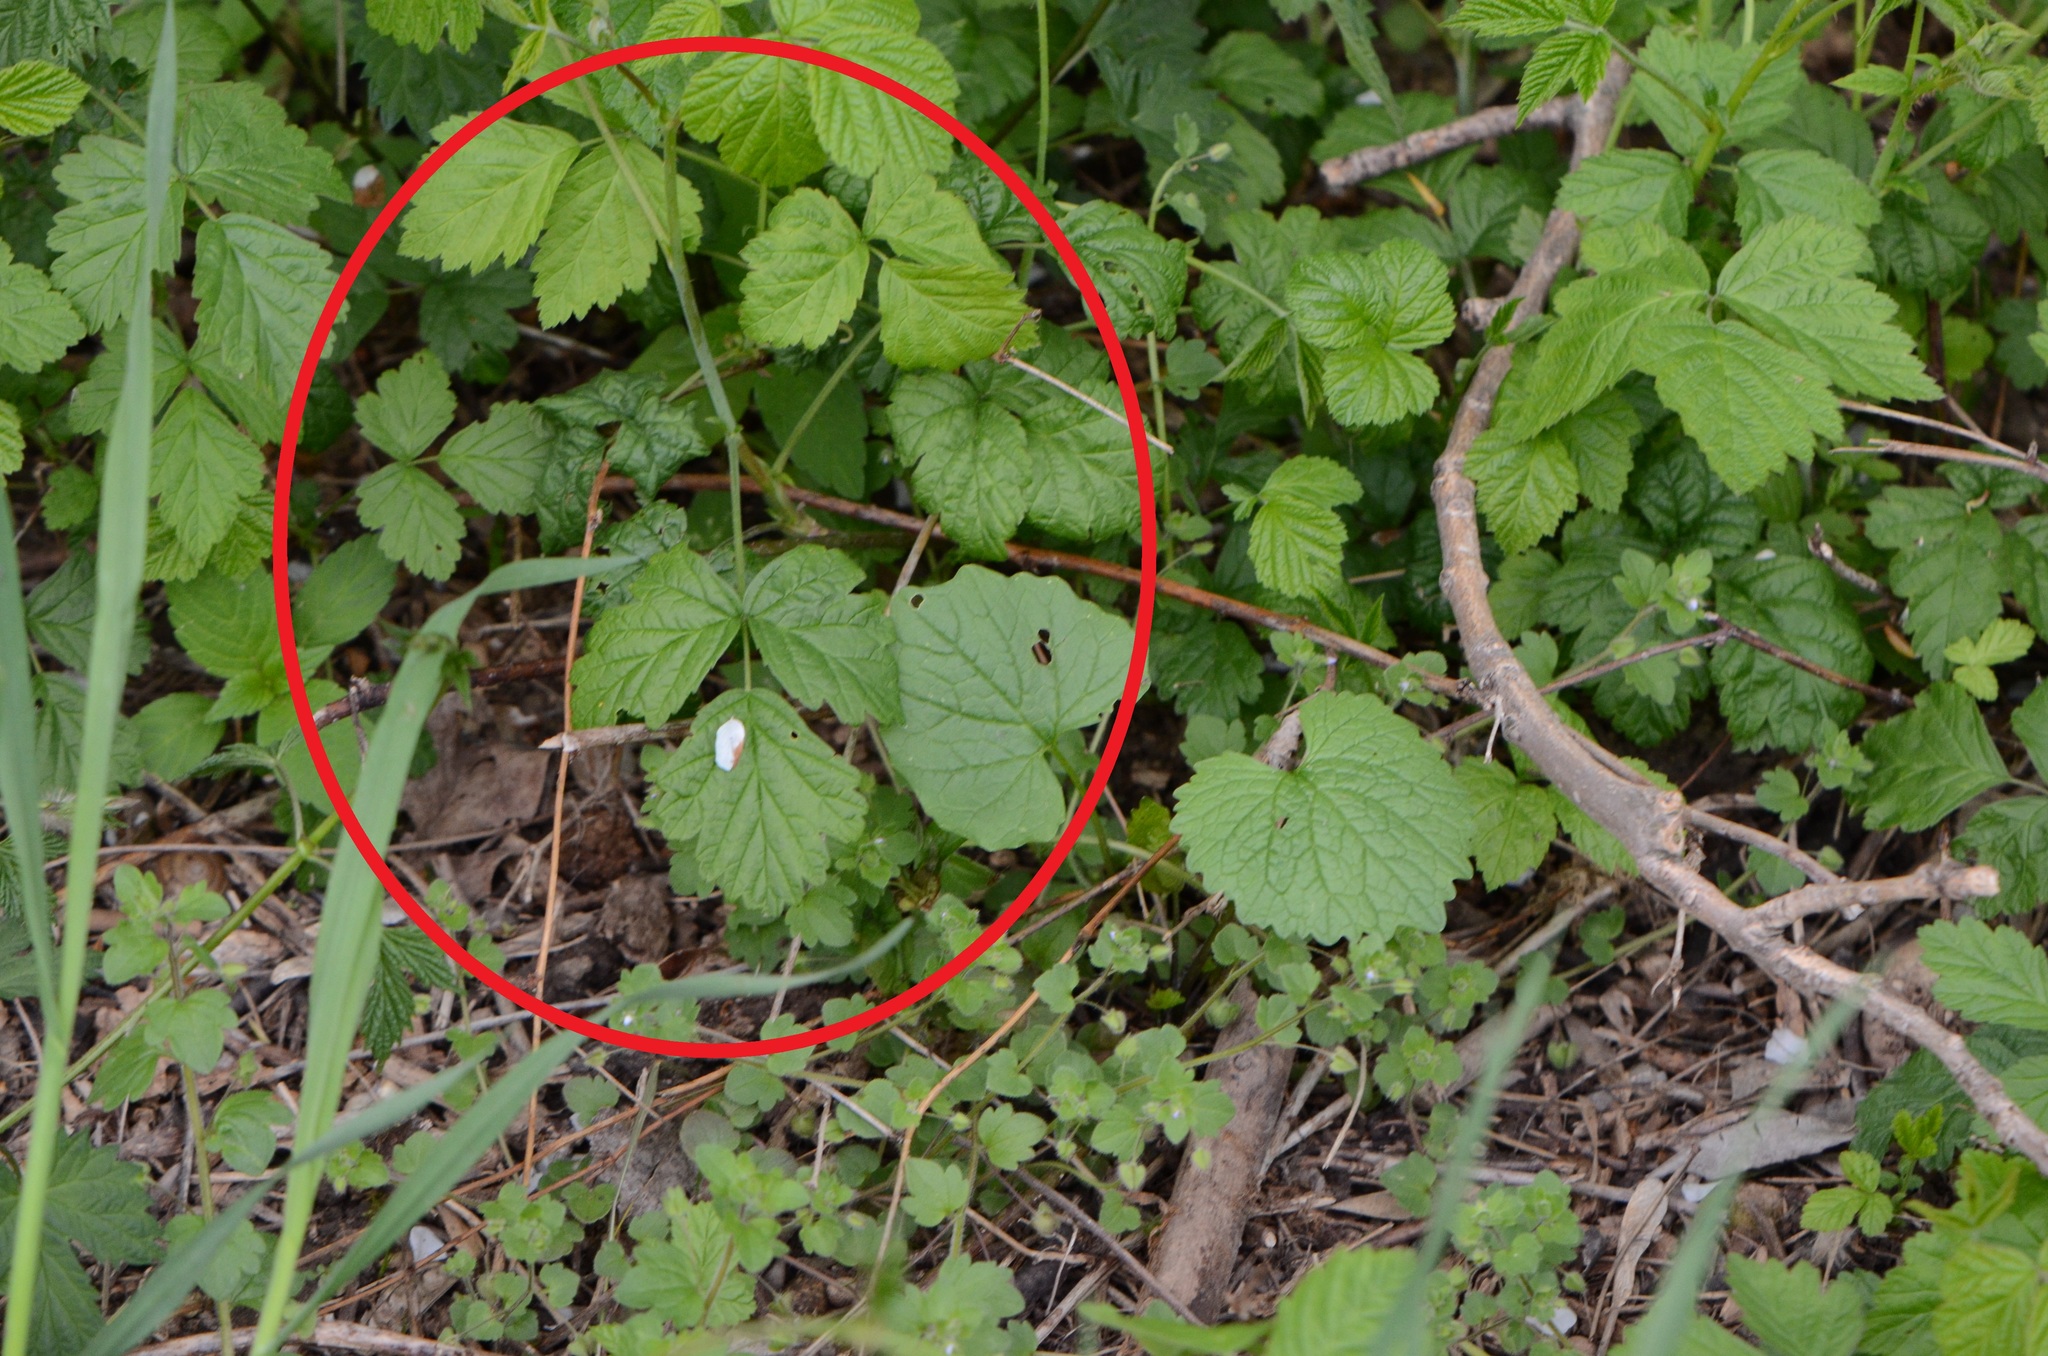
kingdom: Plantae
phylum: Tracheophyta
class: Magnoliopsida
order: Rosales
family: Rosaceae
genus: Rubus
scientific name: Rubus caesius
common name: Dewberry
